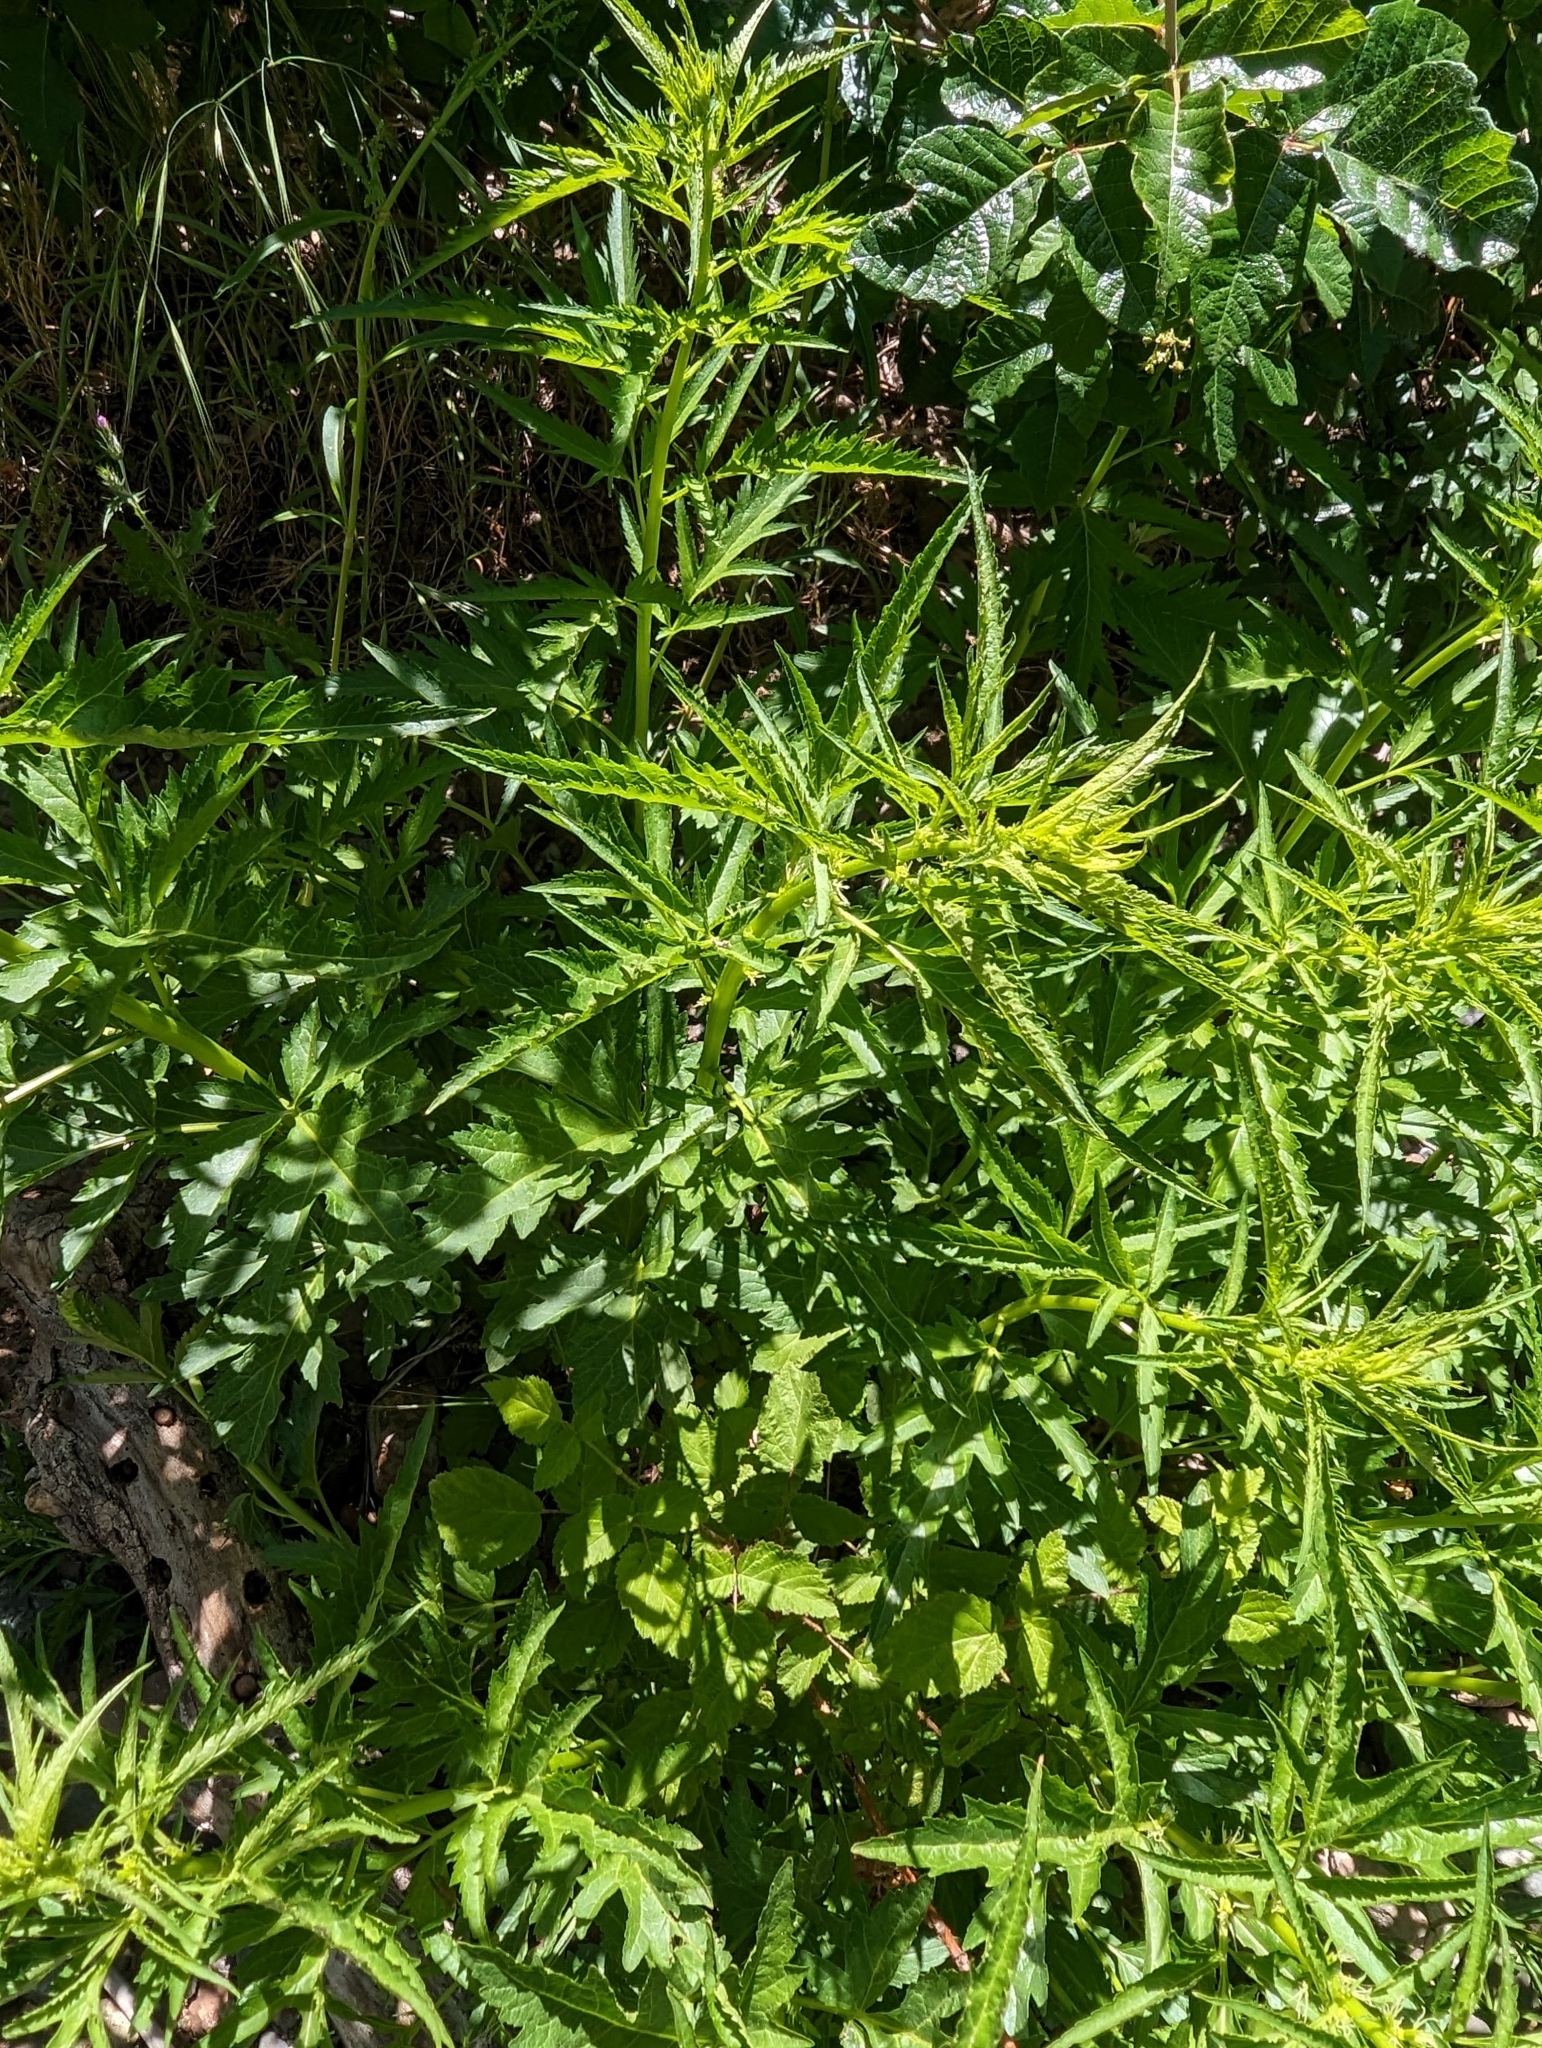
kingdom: Plantae
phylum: Tracheophyta
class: Magnoliopsida
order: Cucurbitales
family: Datiscaceae
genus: Datisca
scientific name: Datisca glomerata
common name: Durango-root
